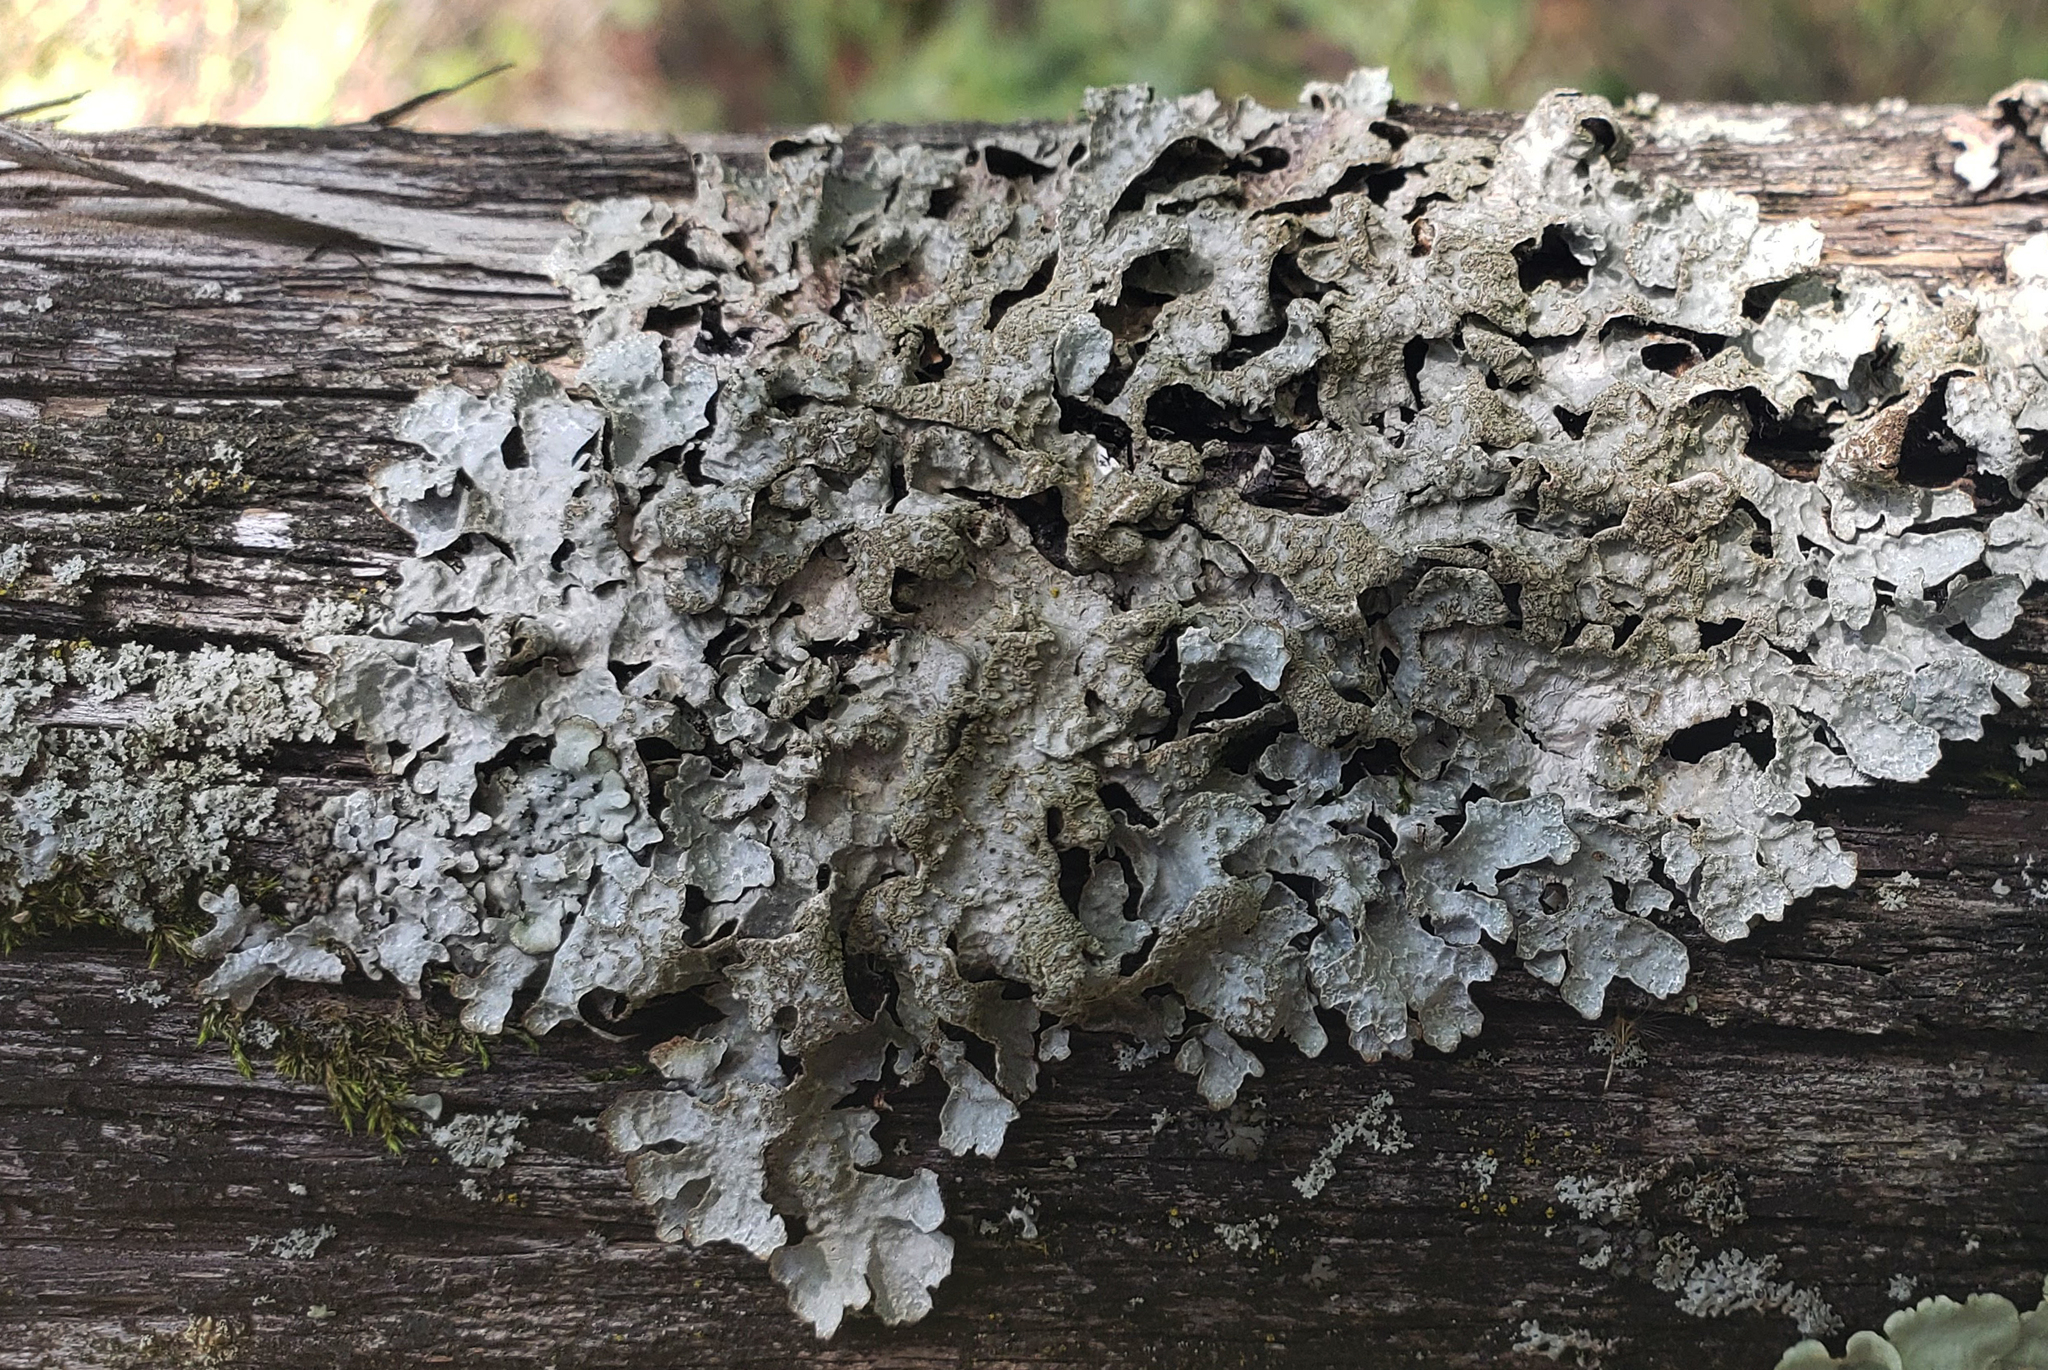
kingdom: Fungi
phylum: Ascomycota
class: Lecanoromycetes
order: Lecanorales
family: Parmeliaceae
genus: Parmelia
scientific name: Parmelia sulcata
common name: Netted shield lichen
